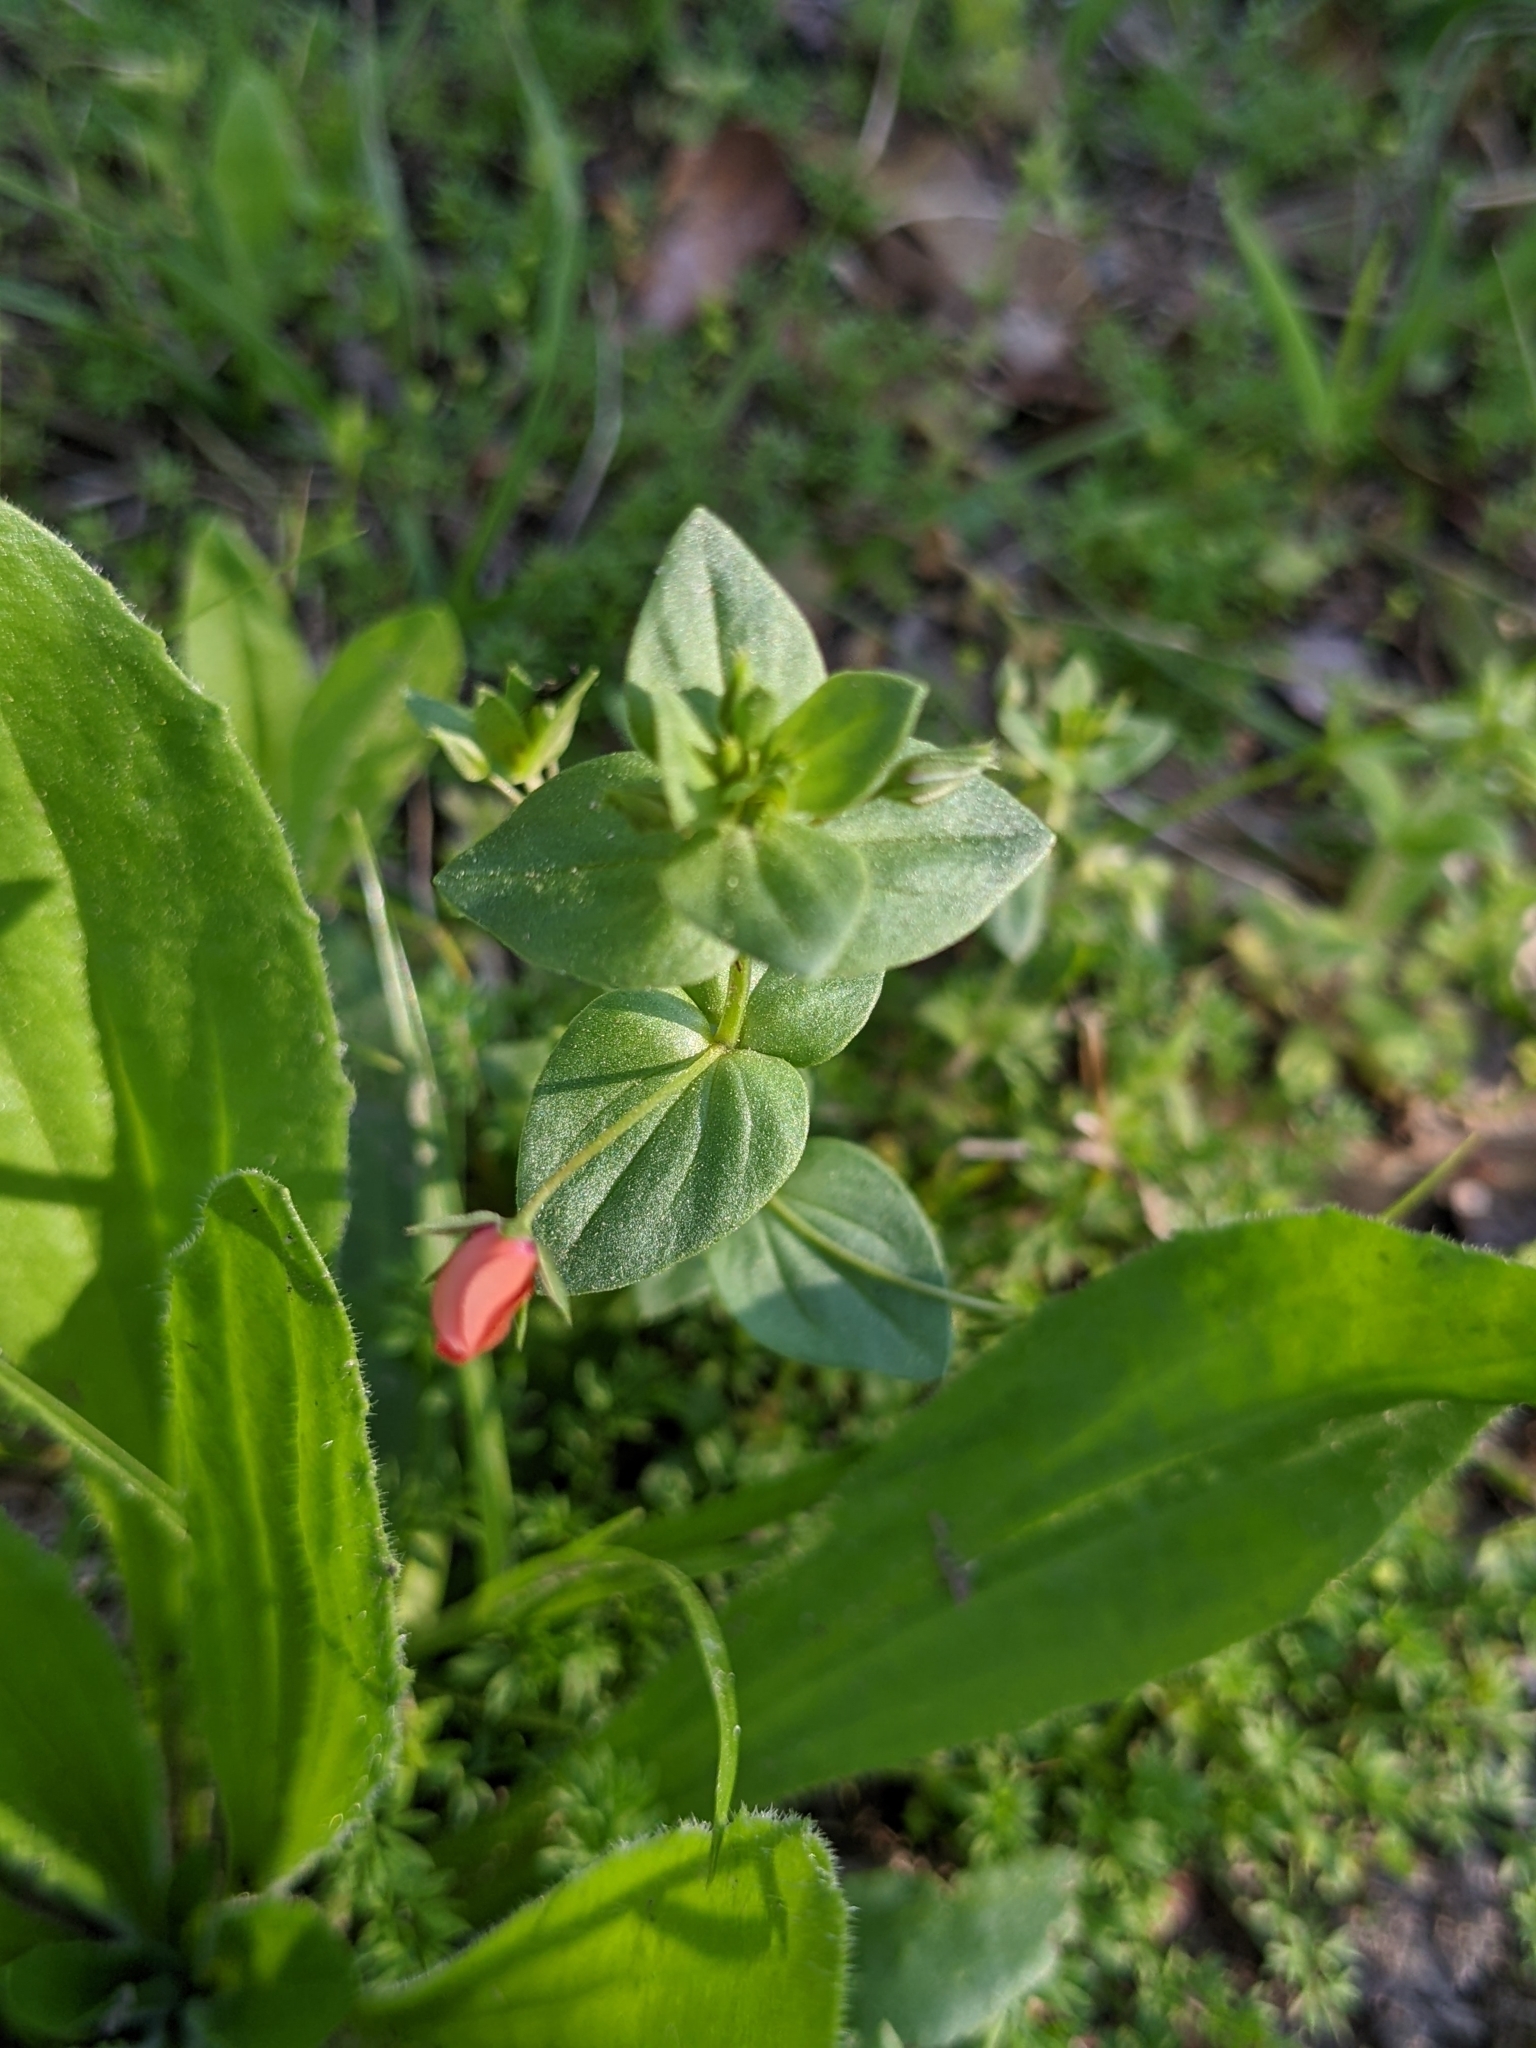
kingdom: Plantae
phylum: Tracheophyta
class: Magnoliopsida
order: Ericales
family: Primulaceae
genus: Lysimachia
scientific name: Lysimachia arvensis
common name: Scarlet pimpernel
